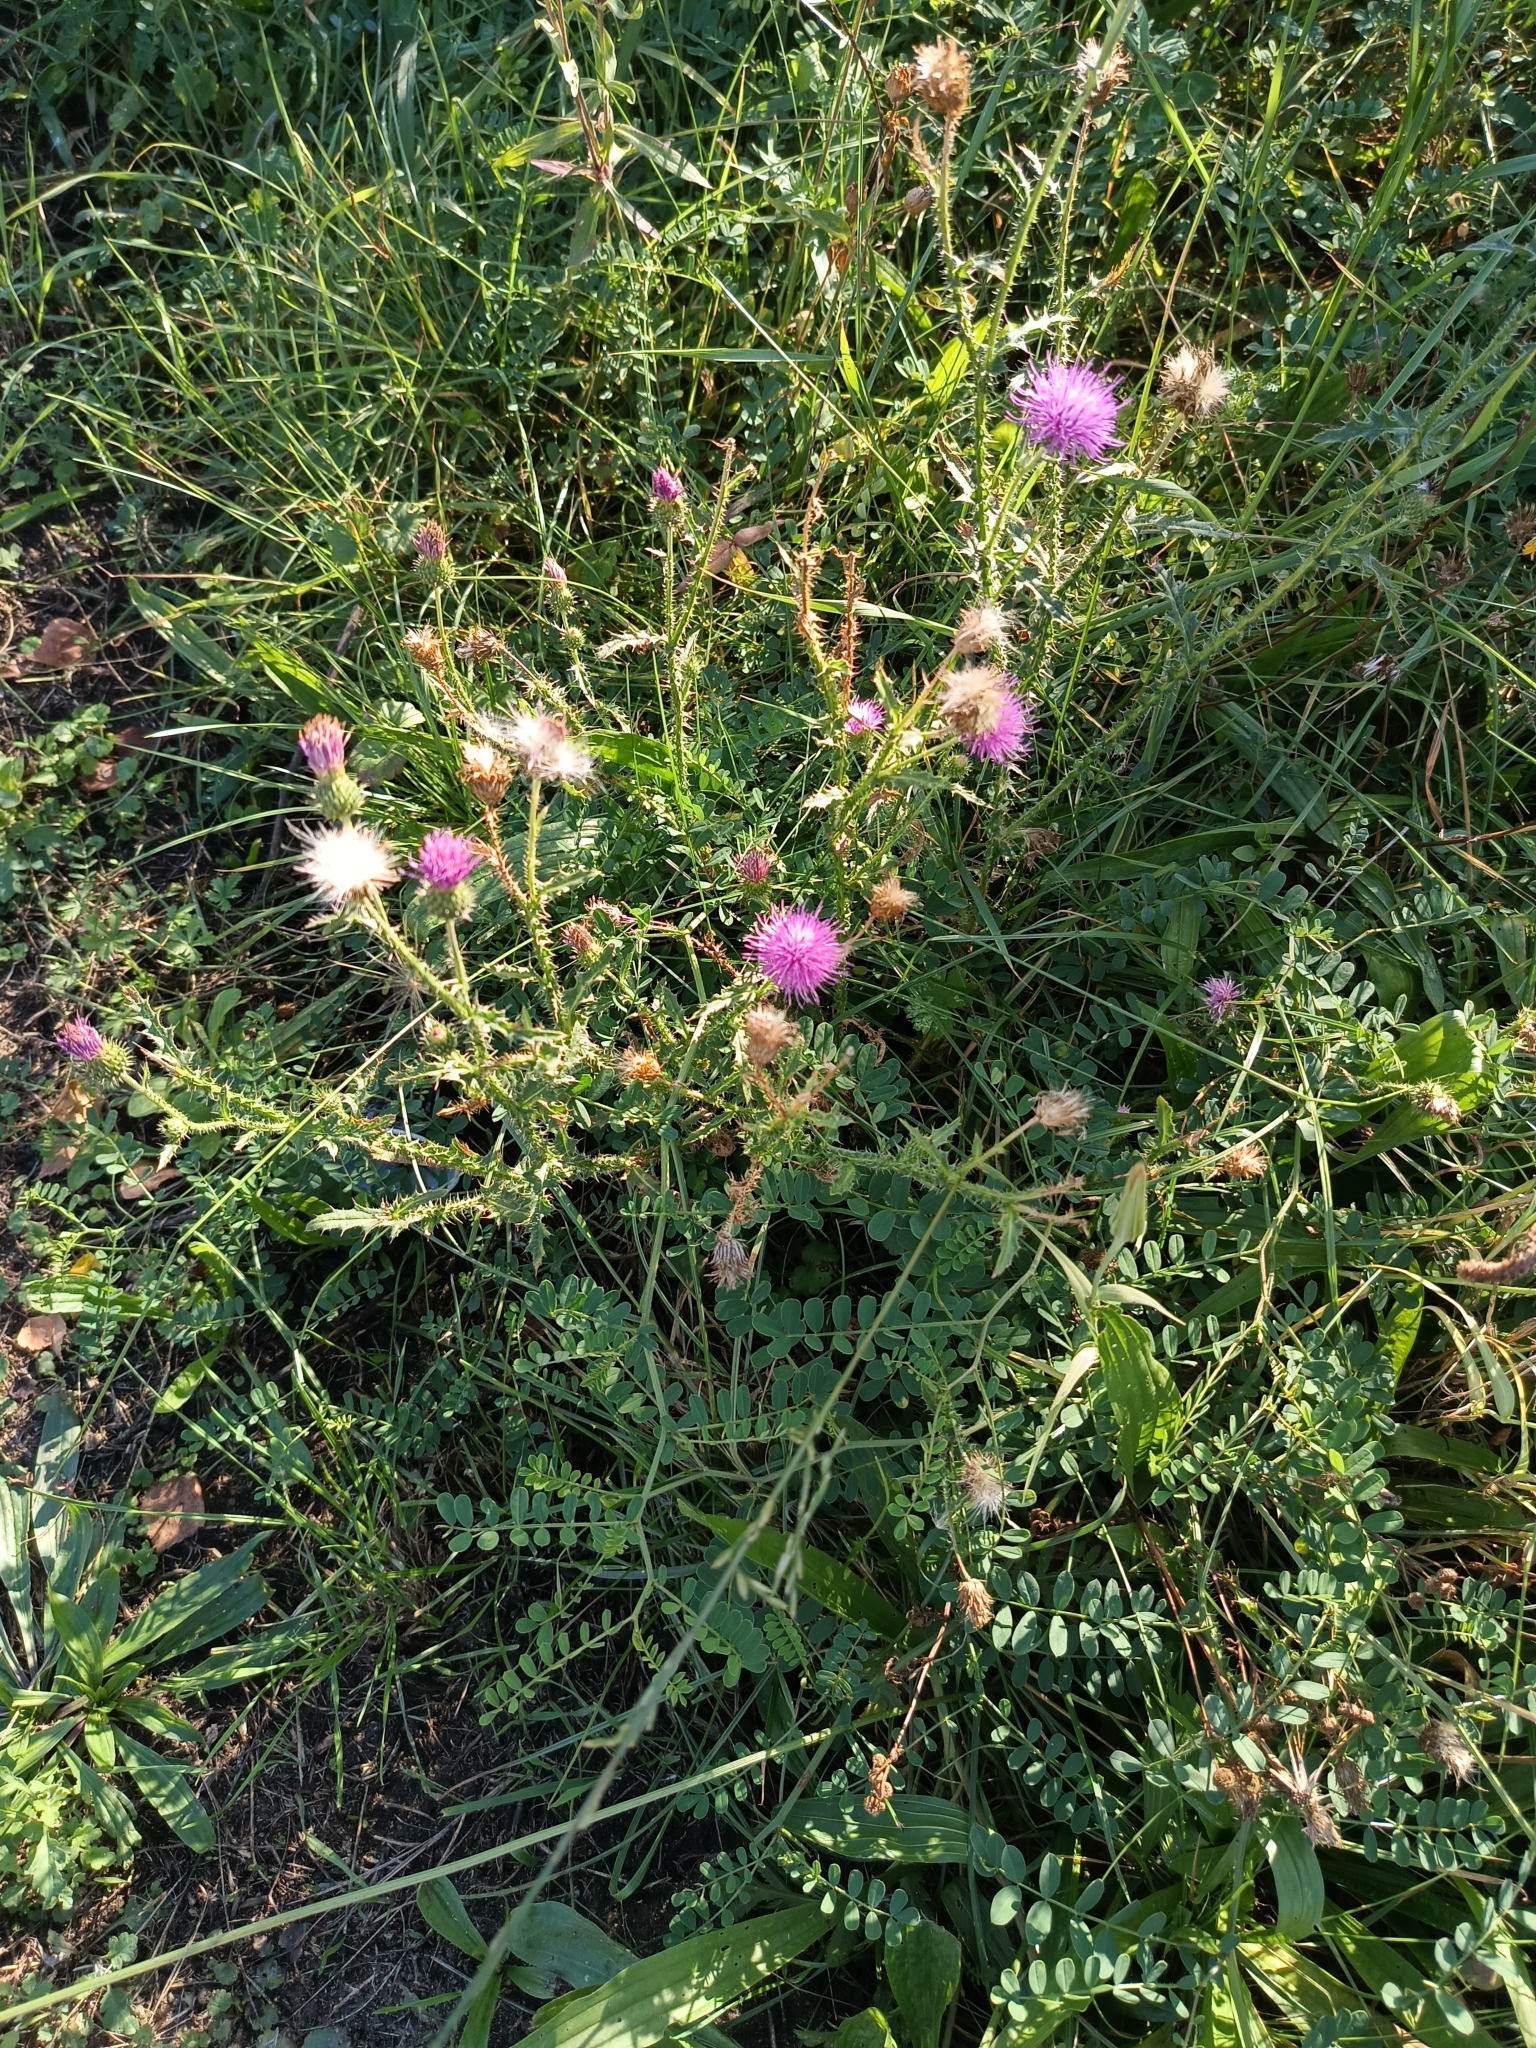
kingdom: Plantae
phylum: Tracheophyta
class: Magnoliopsida
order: Asterales
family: Asteraceae
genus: Carduus
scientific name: Carduus acanthoides
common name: Plumeless thistle
